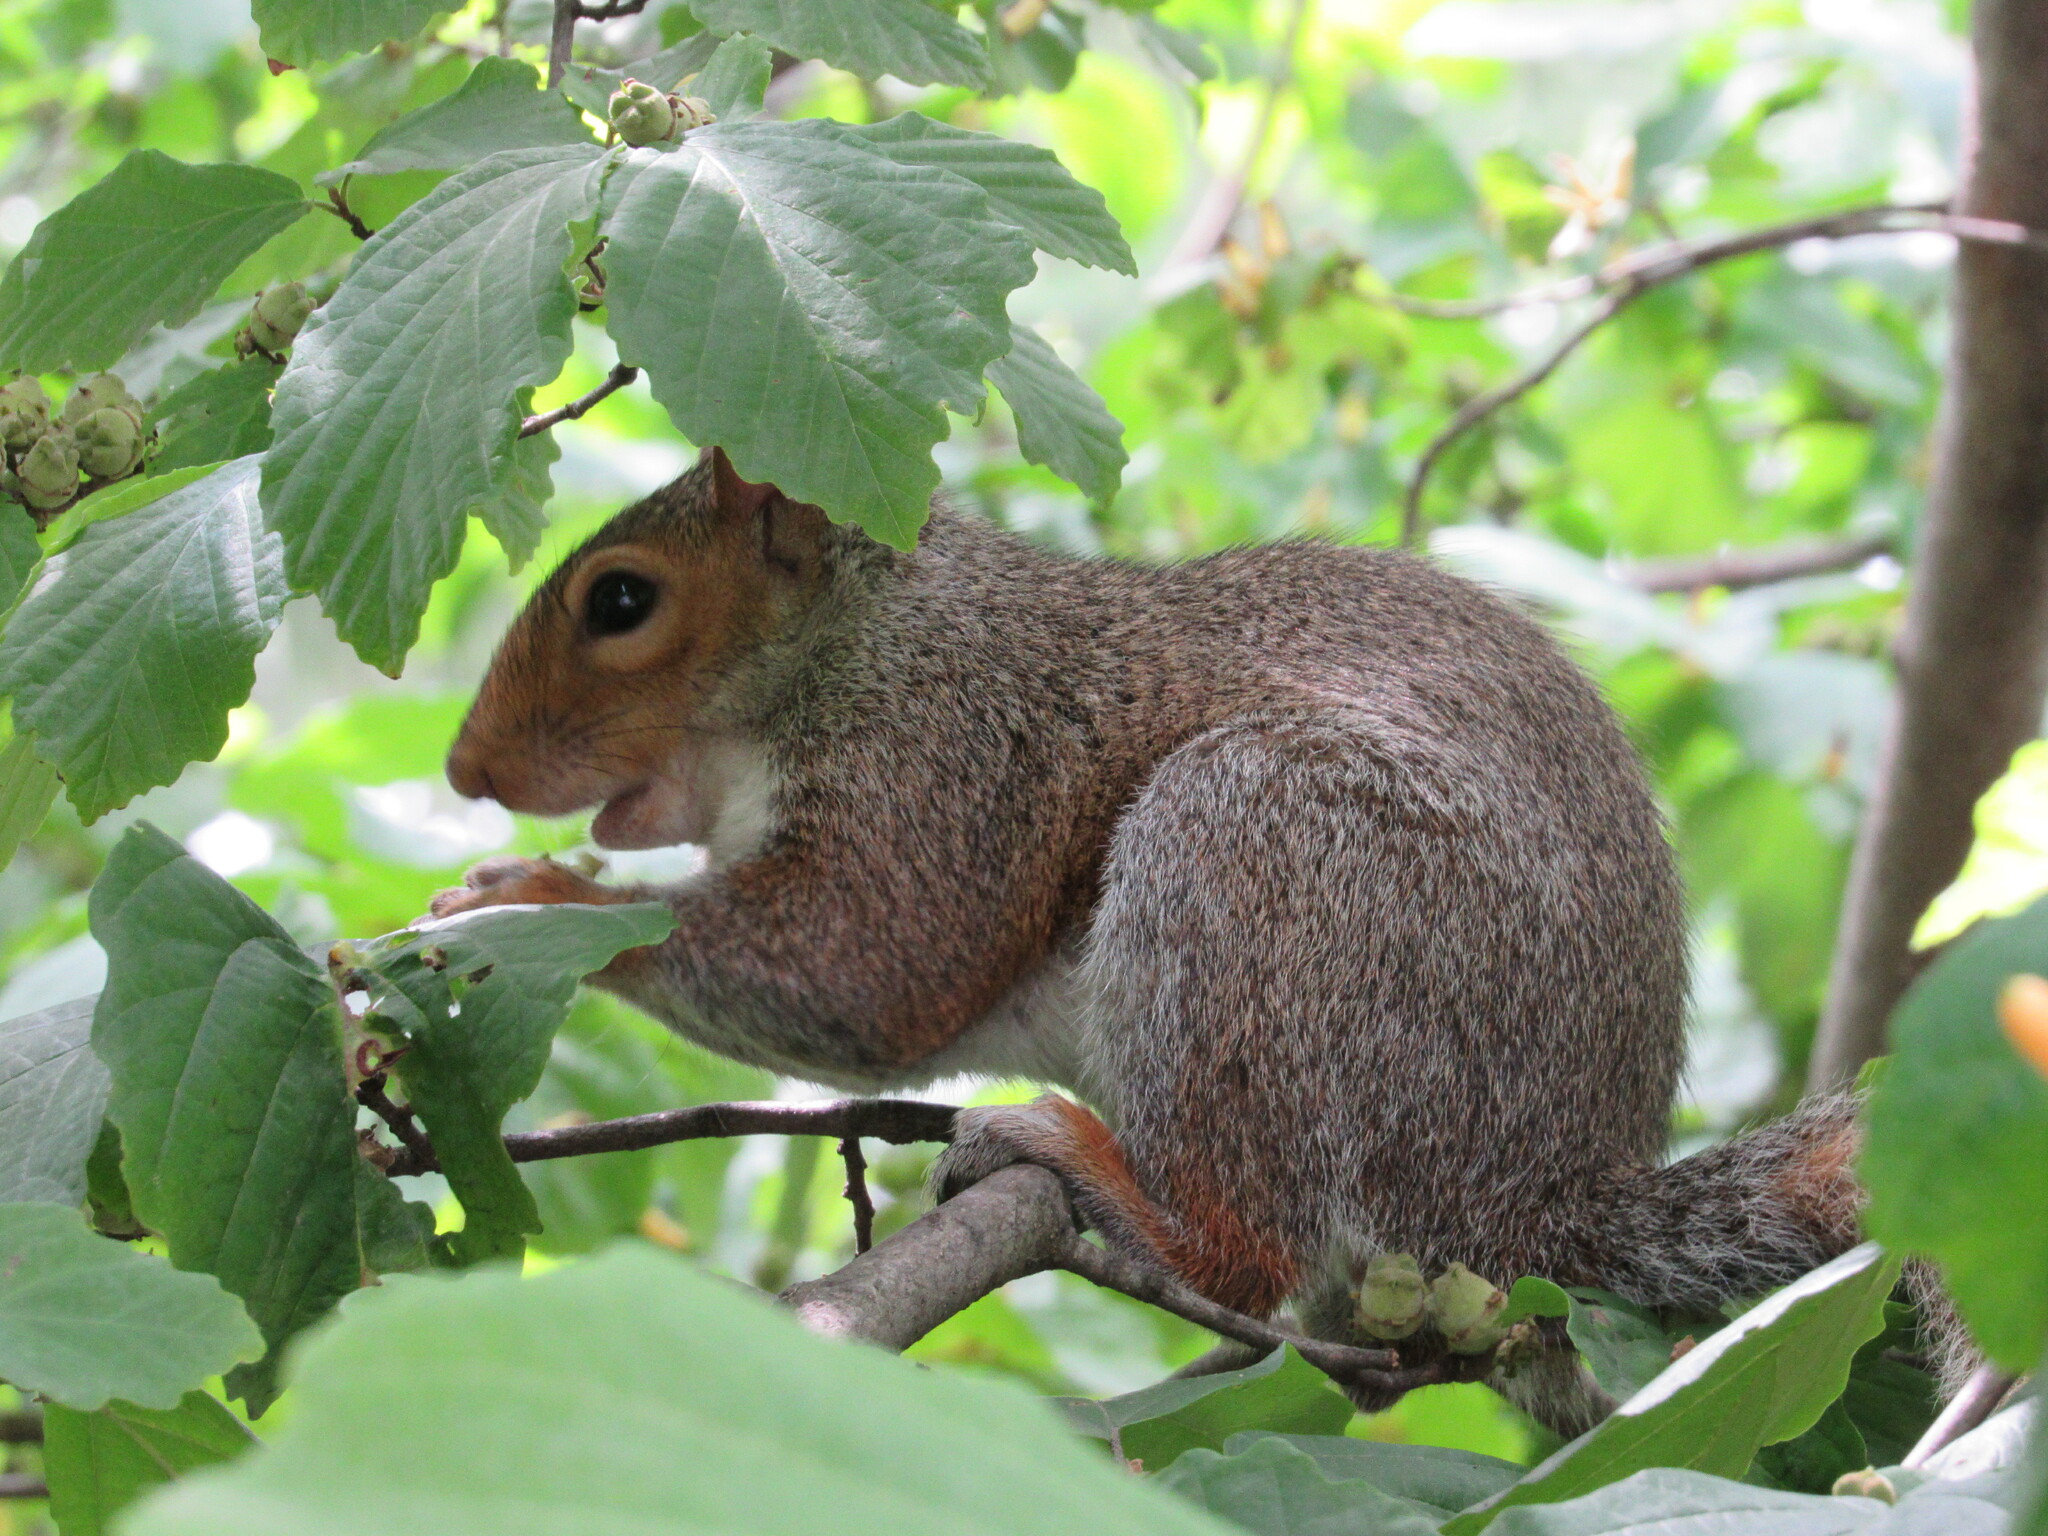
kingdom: Animalia
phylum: Chordata
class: Mammalia
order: Rodentia
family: Sciuridae
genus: Sciurus
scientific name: Sciurus carolinensis
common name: Eastern gray squirrel
